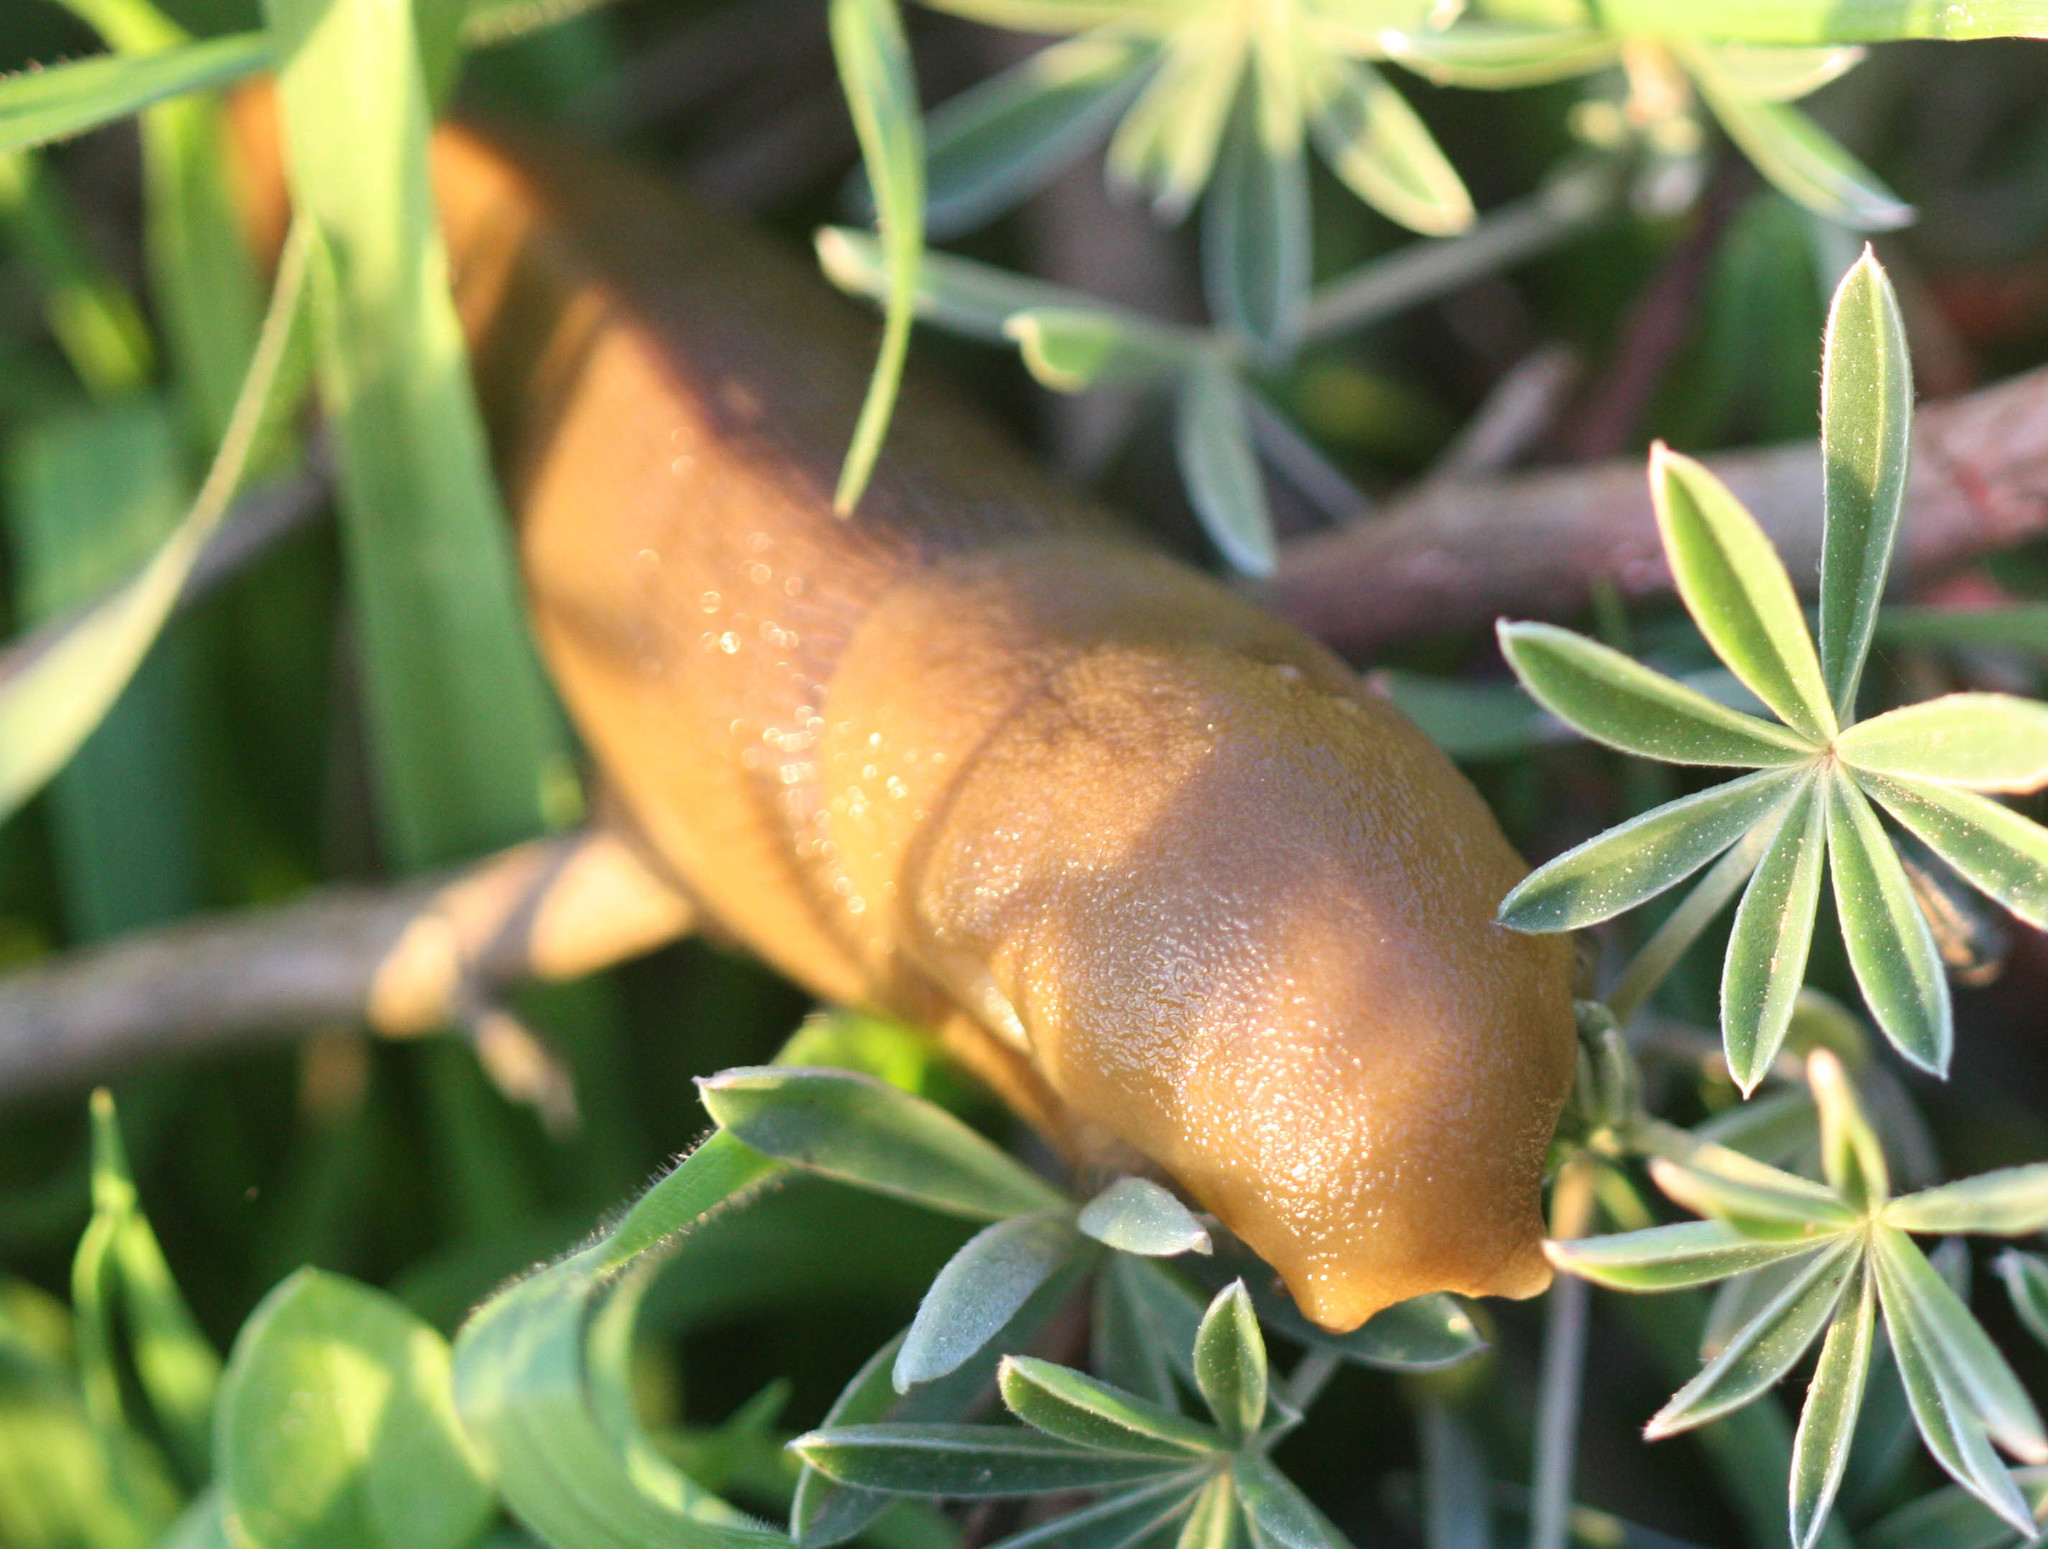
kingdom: Animalia
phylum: Mollusca
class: Gastropoda
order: Stylommatophora
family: Ariolimacidae
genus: Ariolimax
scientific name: Ariolimax buttoni
